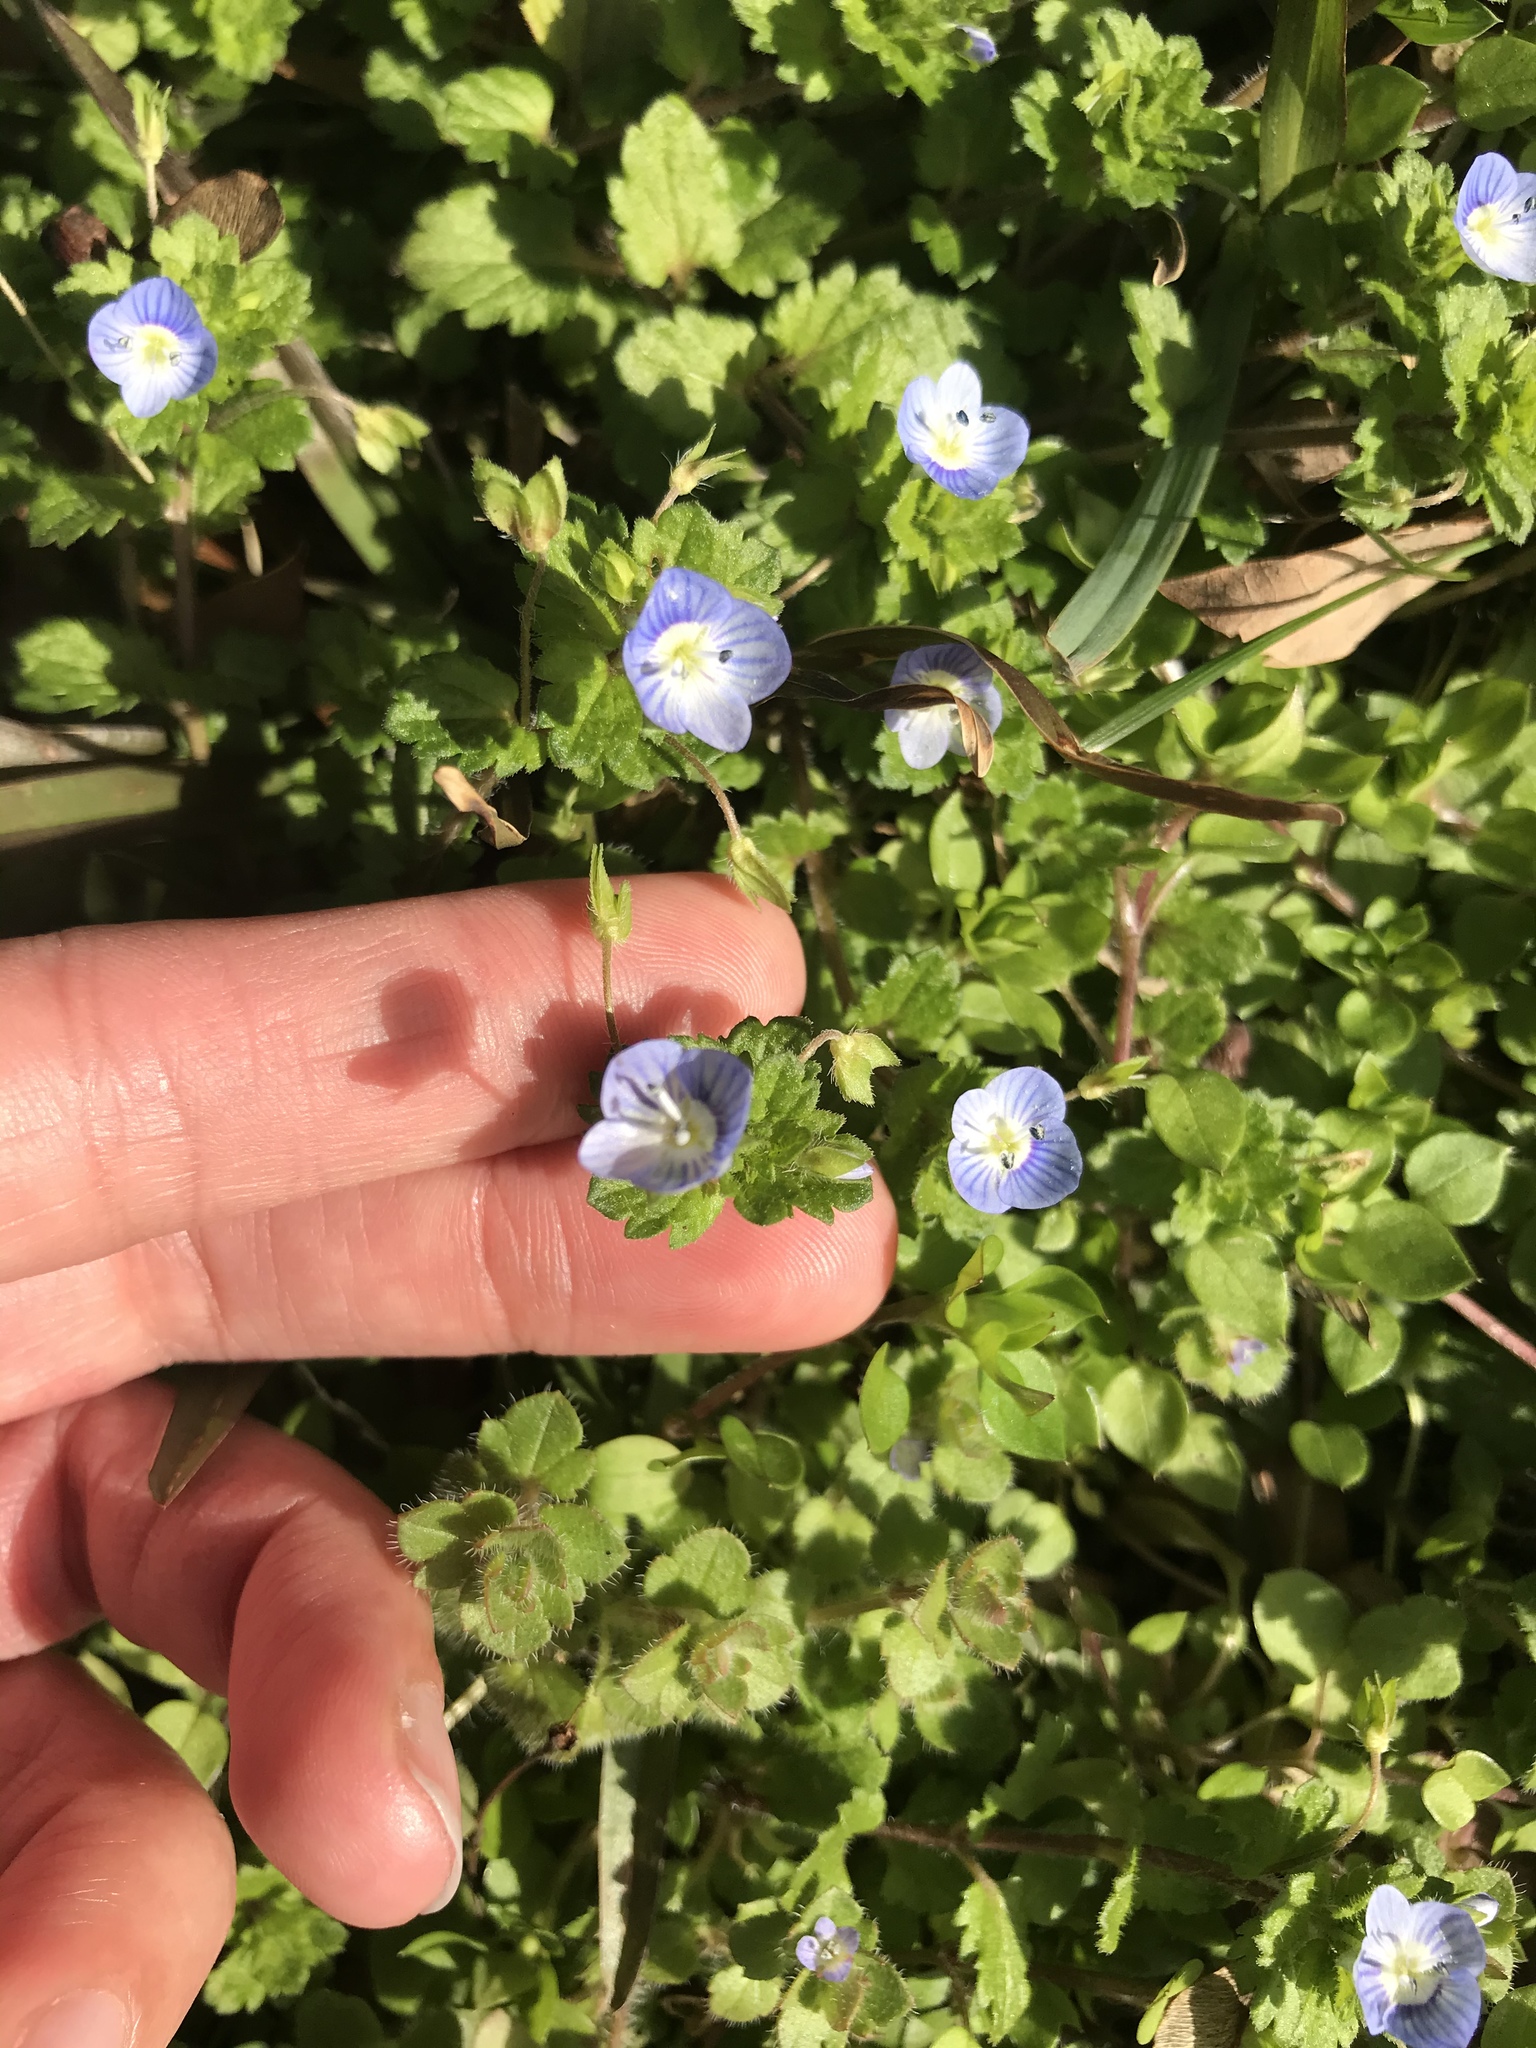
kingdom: Plantae
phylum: Tracheophyta
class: Magnoliopsida
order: Lamiales
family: Plantaginaceae
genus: Veronica
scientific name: Veronica persica
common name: Common field-speedwell
